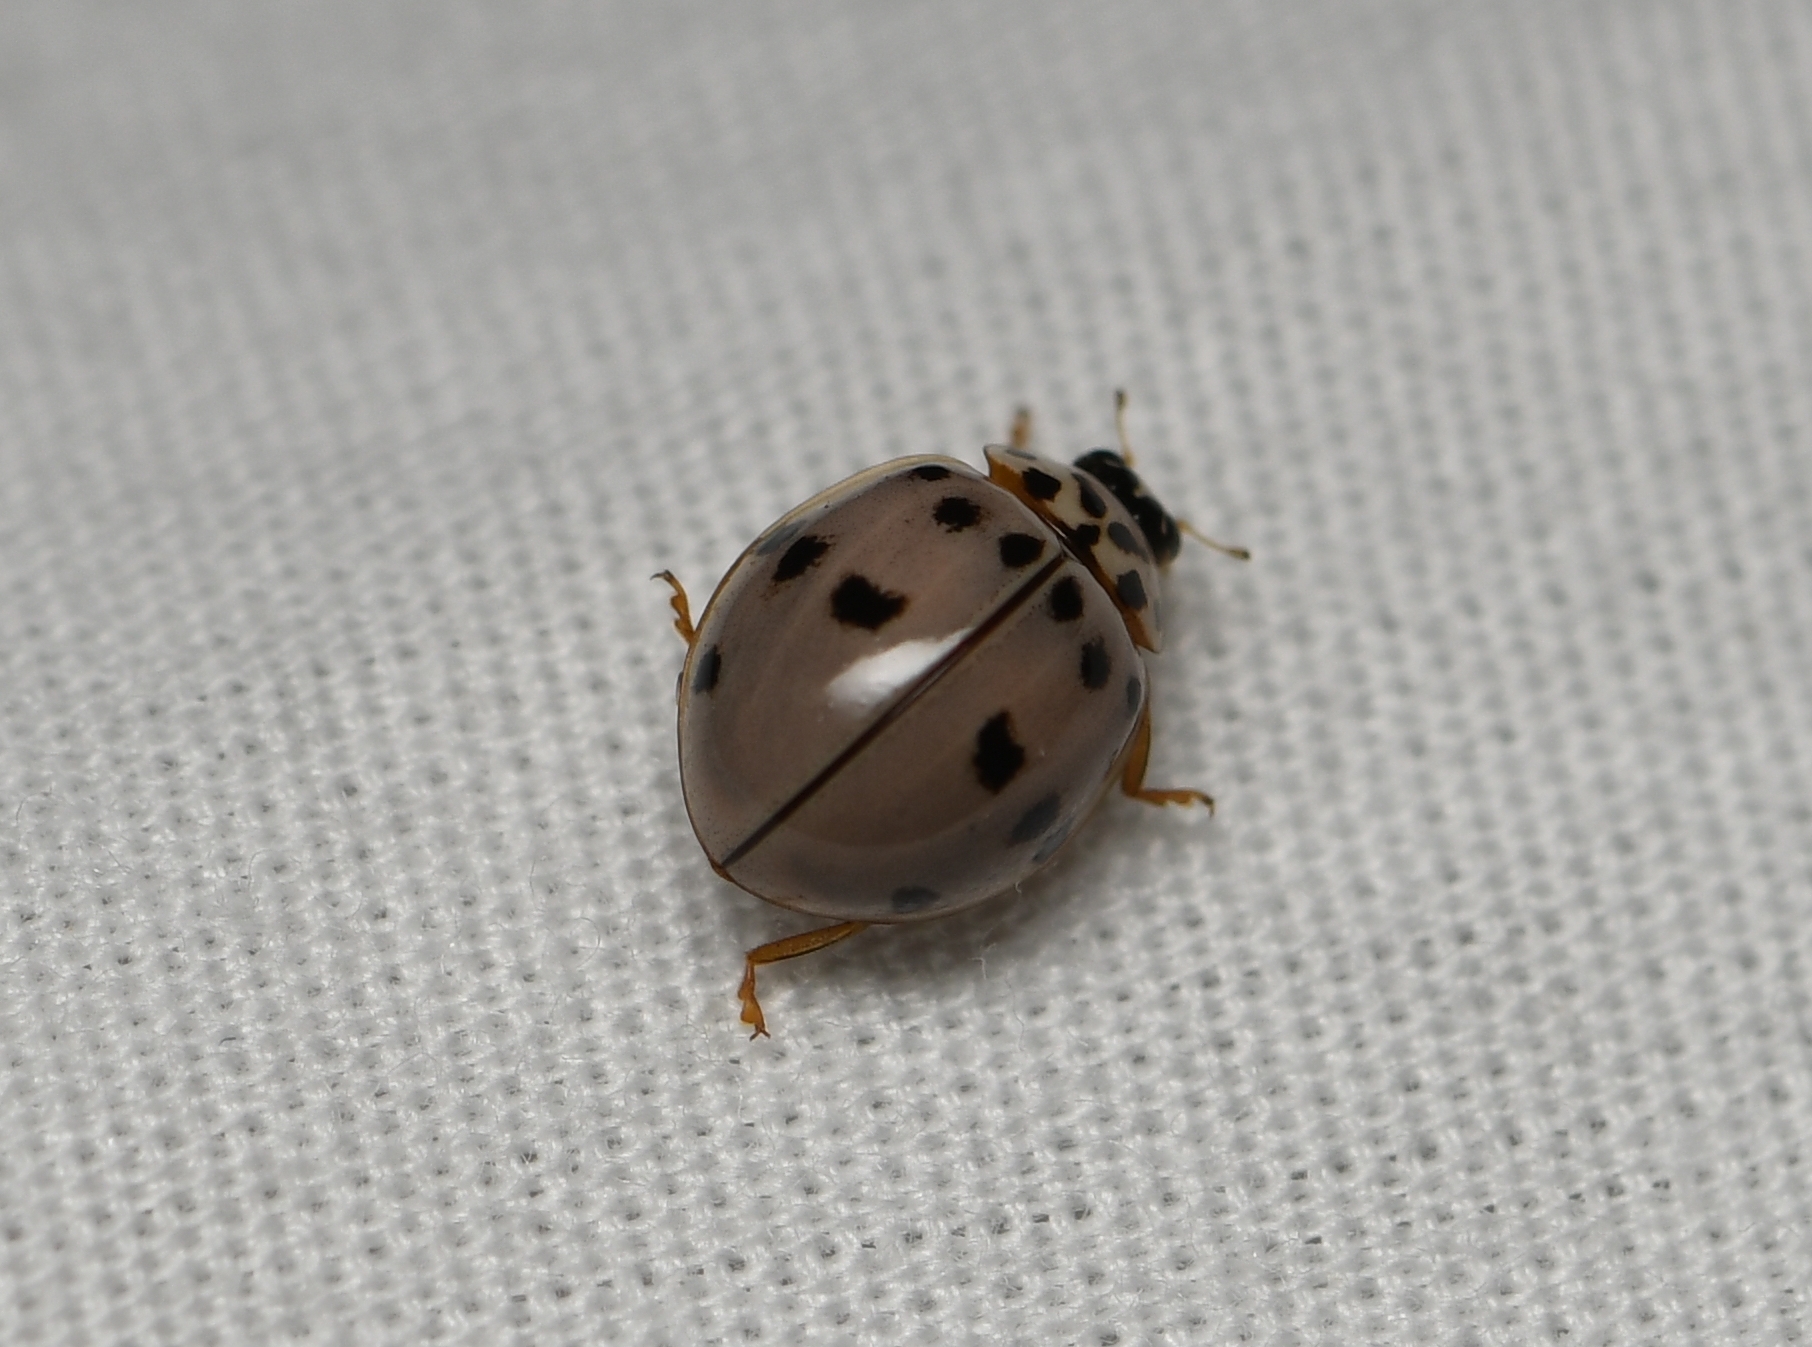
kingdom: Animalia
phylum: Arthropoda
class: Insecta
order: Coleoptera
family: Coccinellidae
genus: Olla
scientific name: Olla v-nigrum
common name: Ashy gray lady beetle
